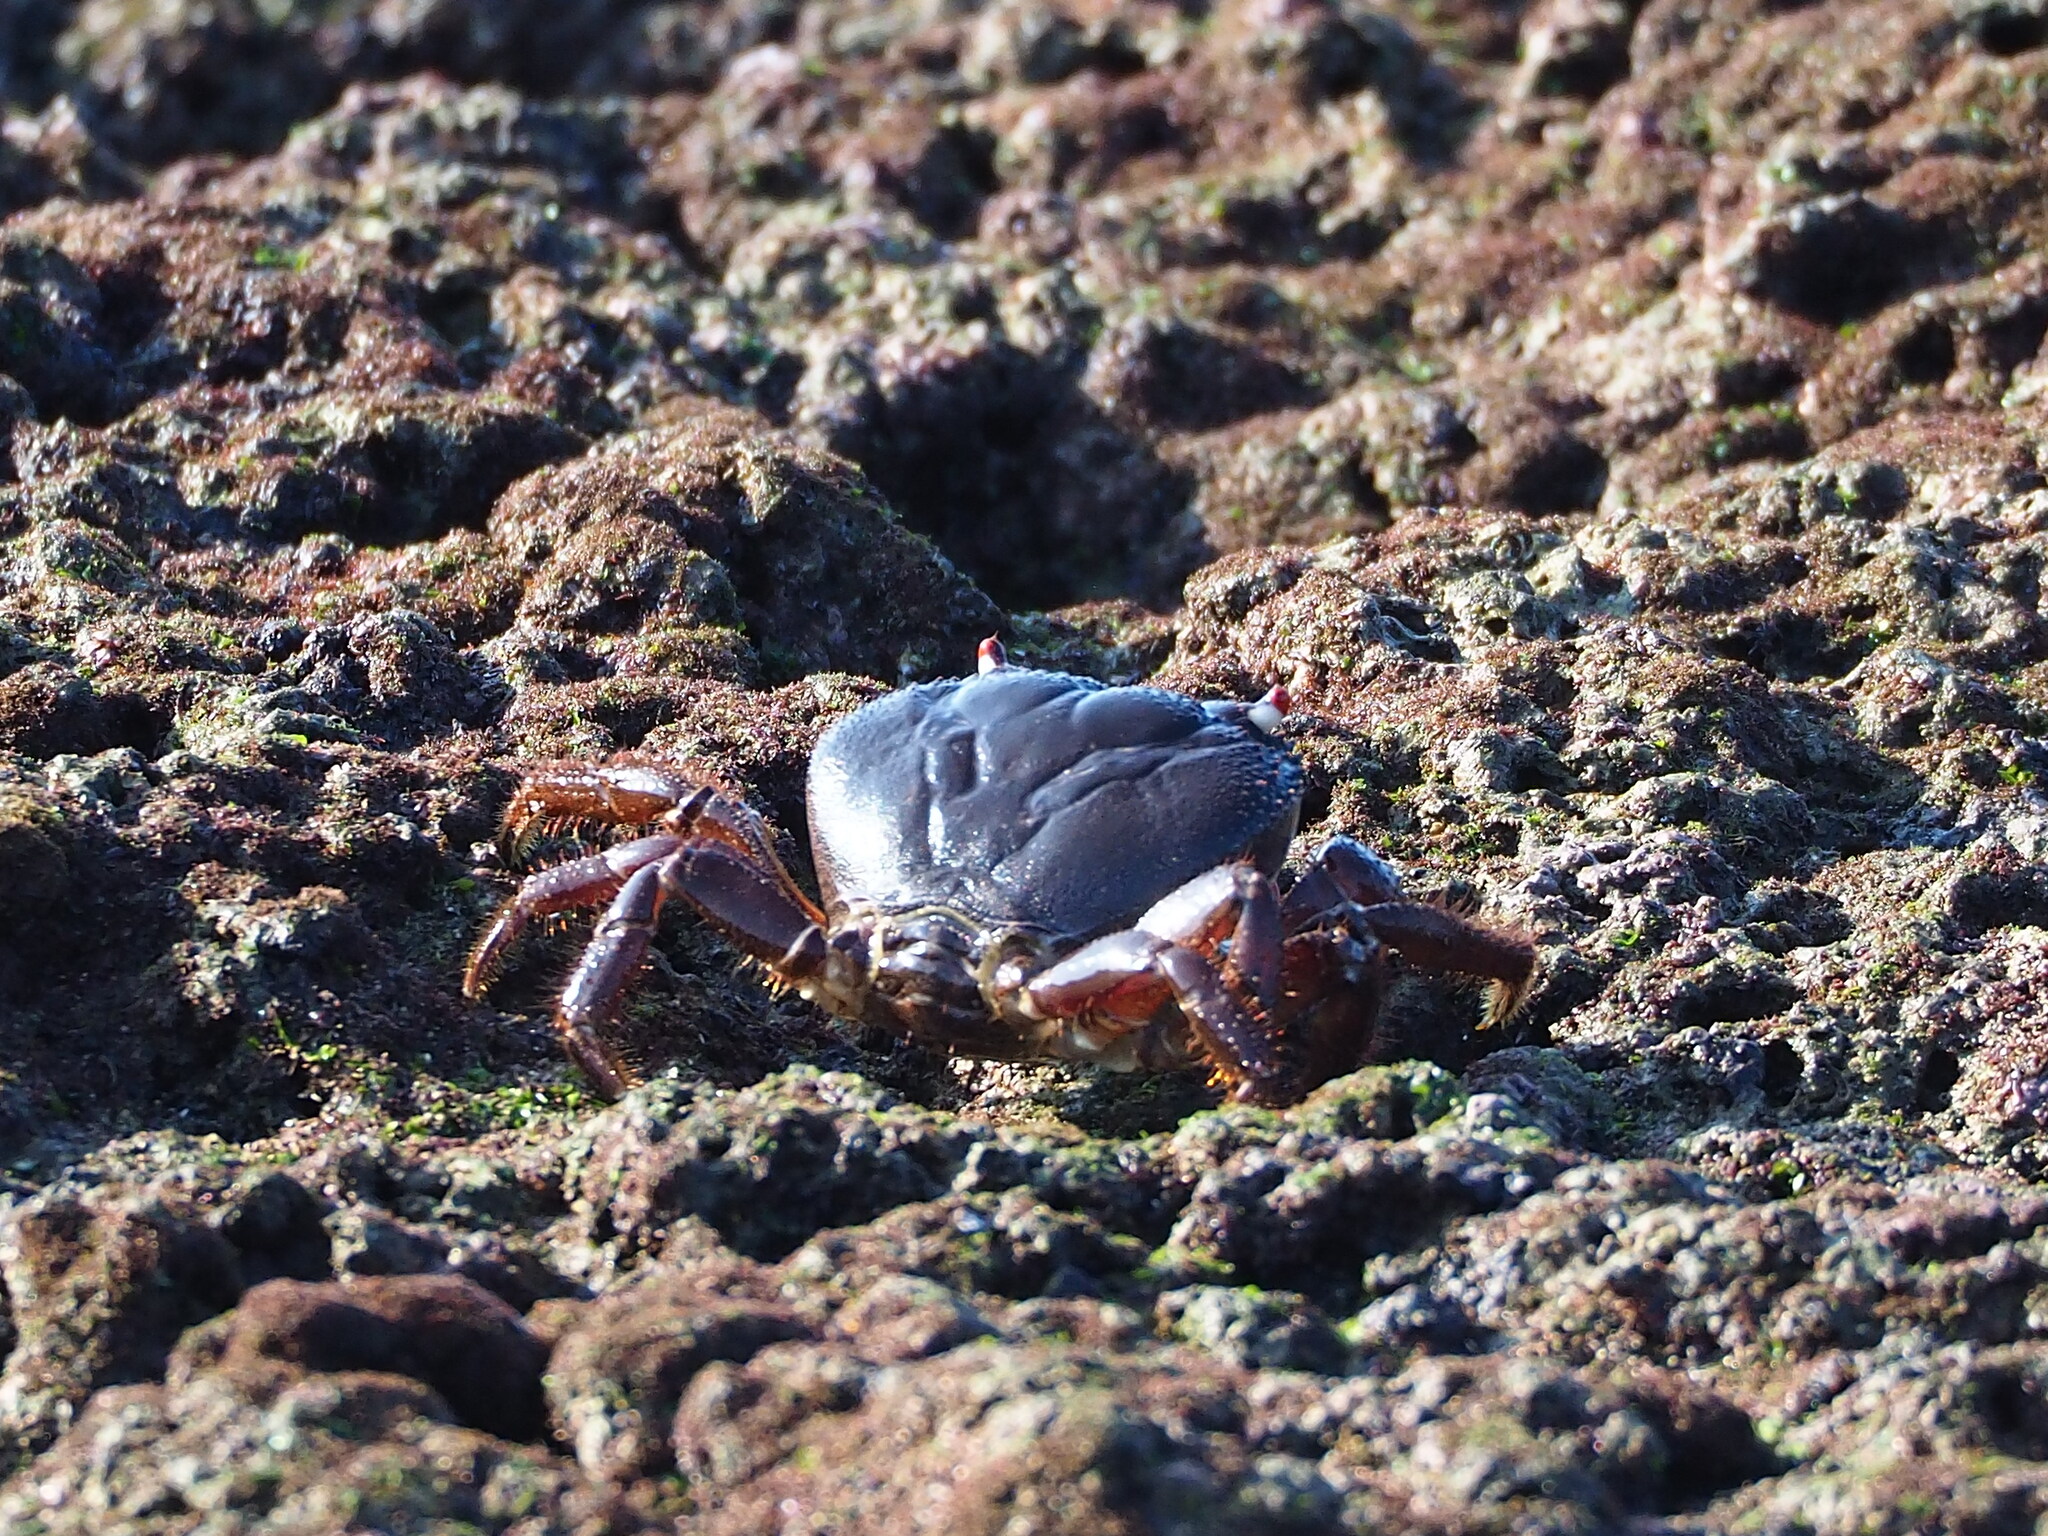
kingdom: Animalia
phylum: Arthropoda
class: Malacostraca
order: Decapoda
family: Eriphiidae
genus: Eriphia
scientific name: Eriphia ferox
